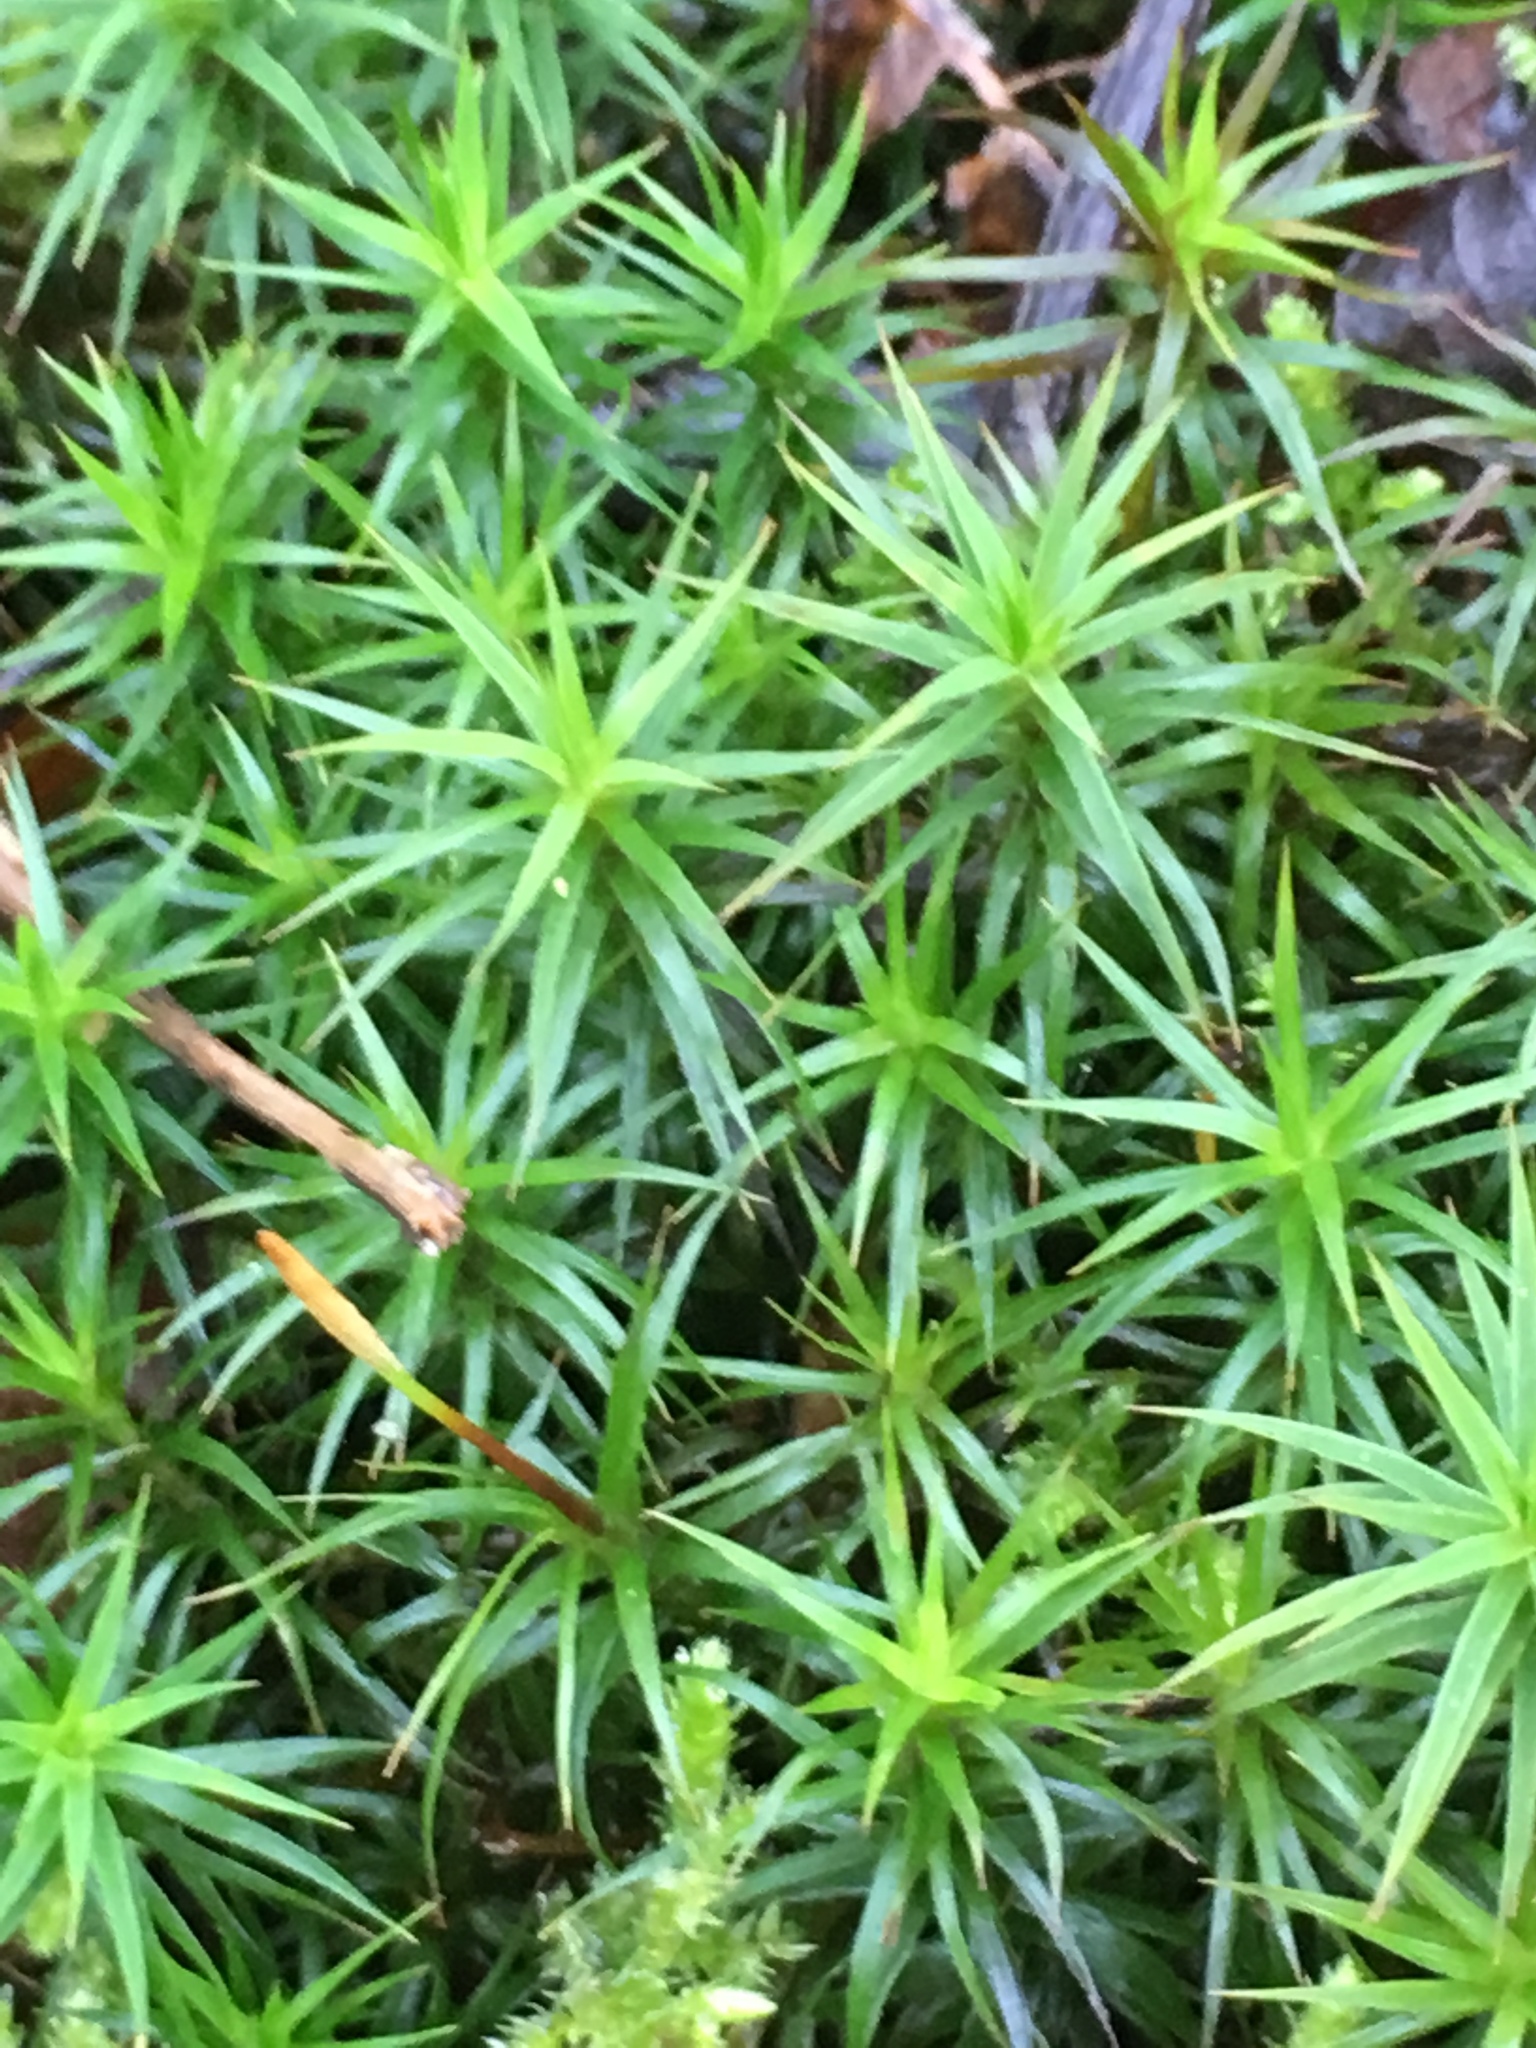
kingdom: Plantae
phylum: Bryophyta
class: Polytrichopsida
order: Polytrichales
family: Polytrichaceae
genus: Polytrichum
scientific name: Polytrichum formosum
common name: Bank haircap moss
